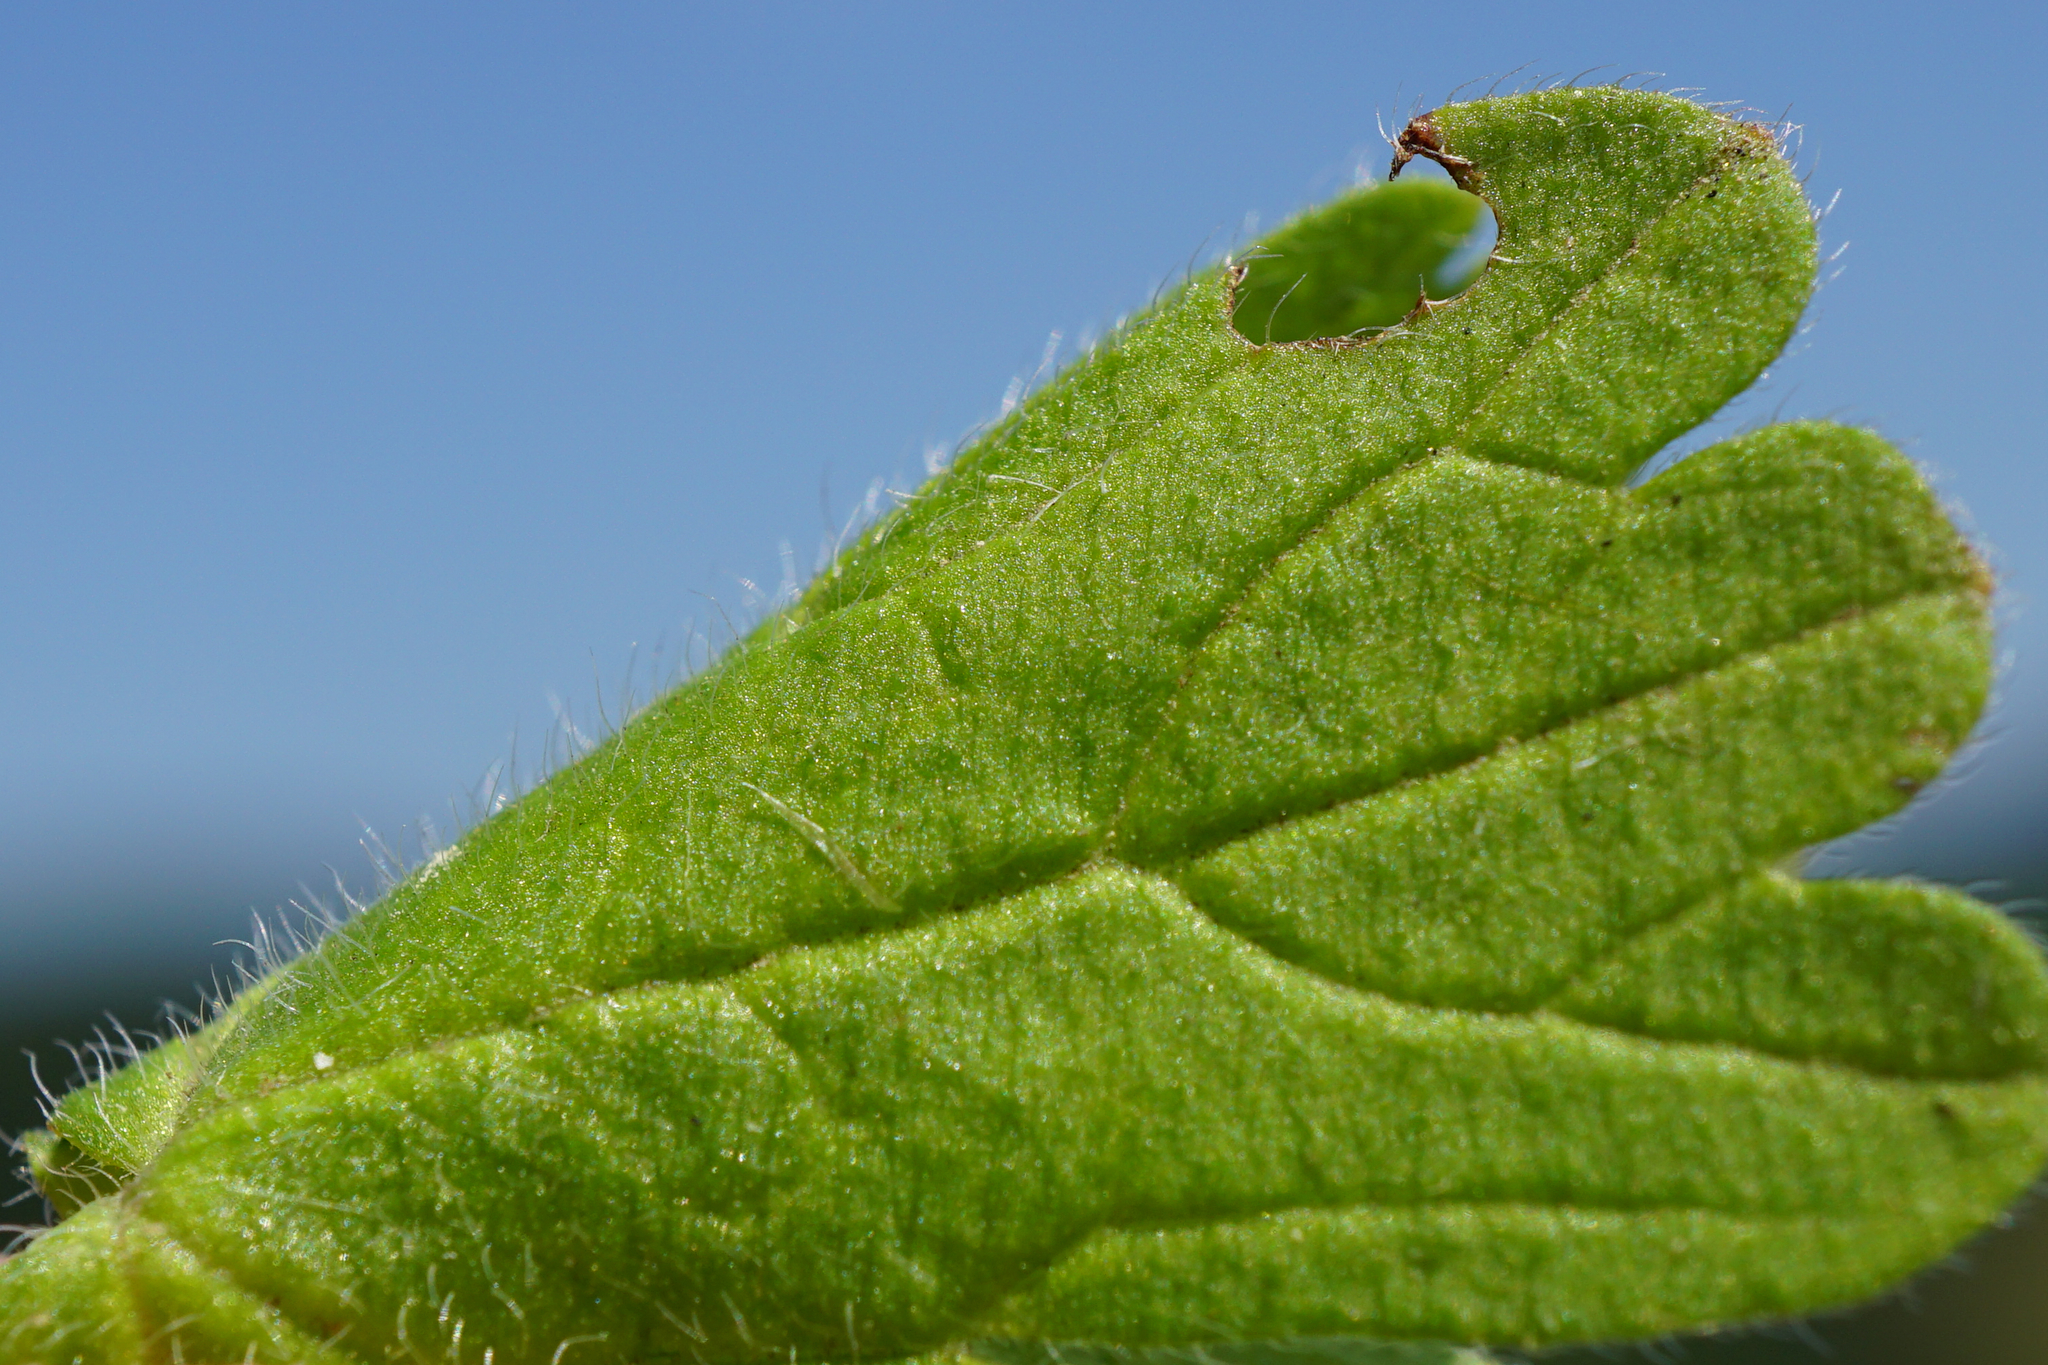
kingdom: Plantae
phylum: Tracheophyta
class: Magnoliopsida
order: Geraniales
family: Geraniaceae
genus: Geranium
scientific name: Geranium pyrenaicum
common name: Hedgerow crane's-bill
